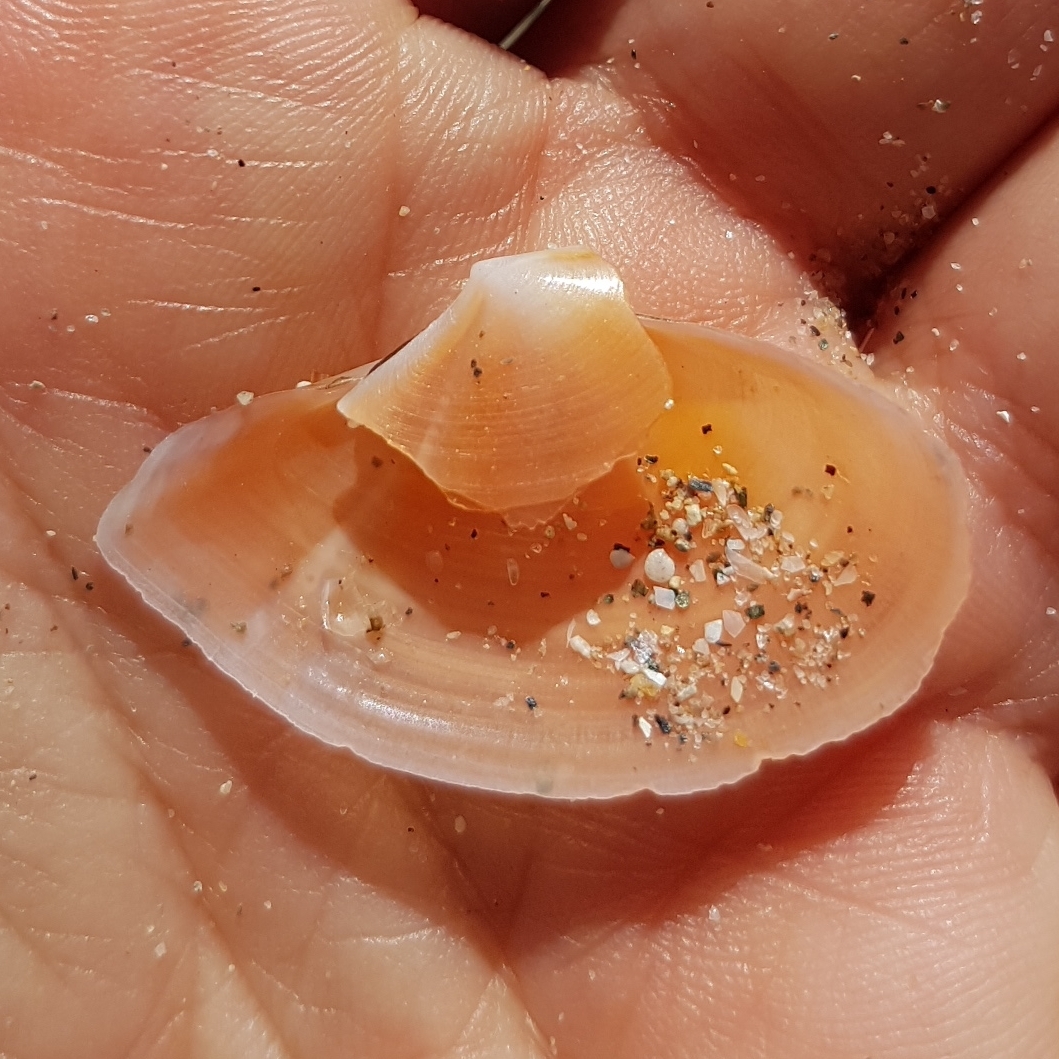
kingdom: Animalia
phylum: Mollusca
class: Bivalvia
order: Cardiida
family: Tellinidae
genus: Bosemprella
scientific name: Bosemprella incarnata
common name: Red tellin
